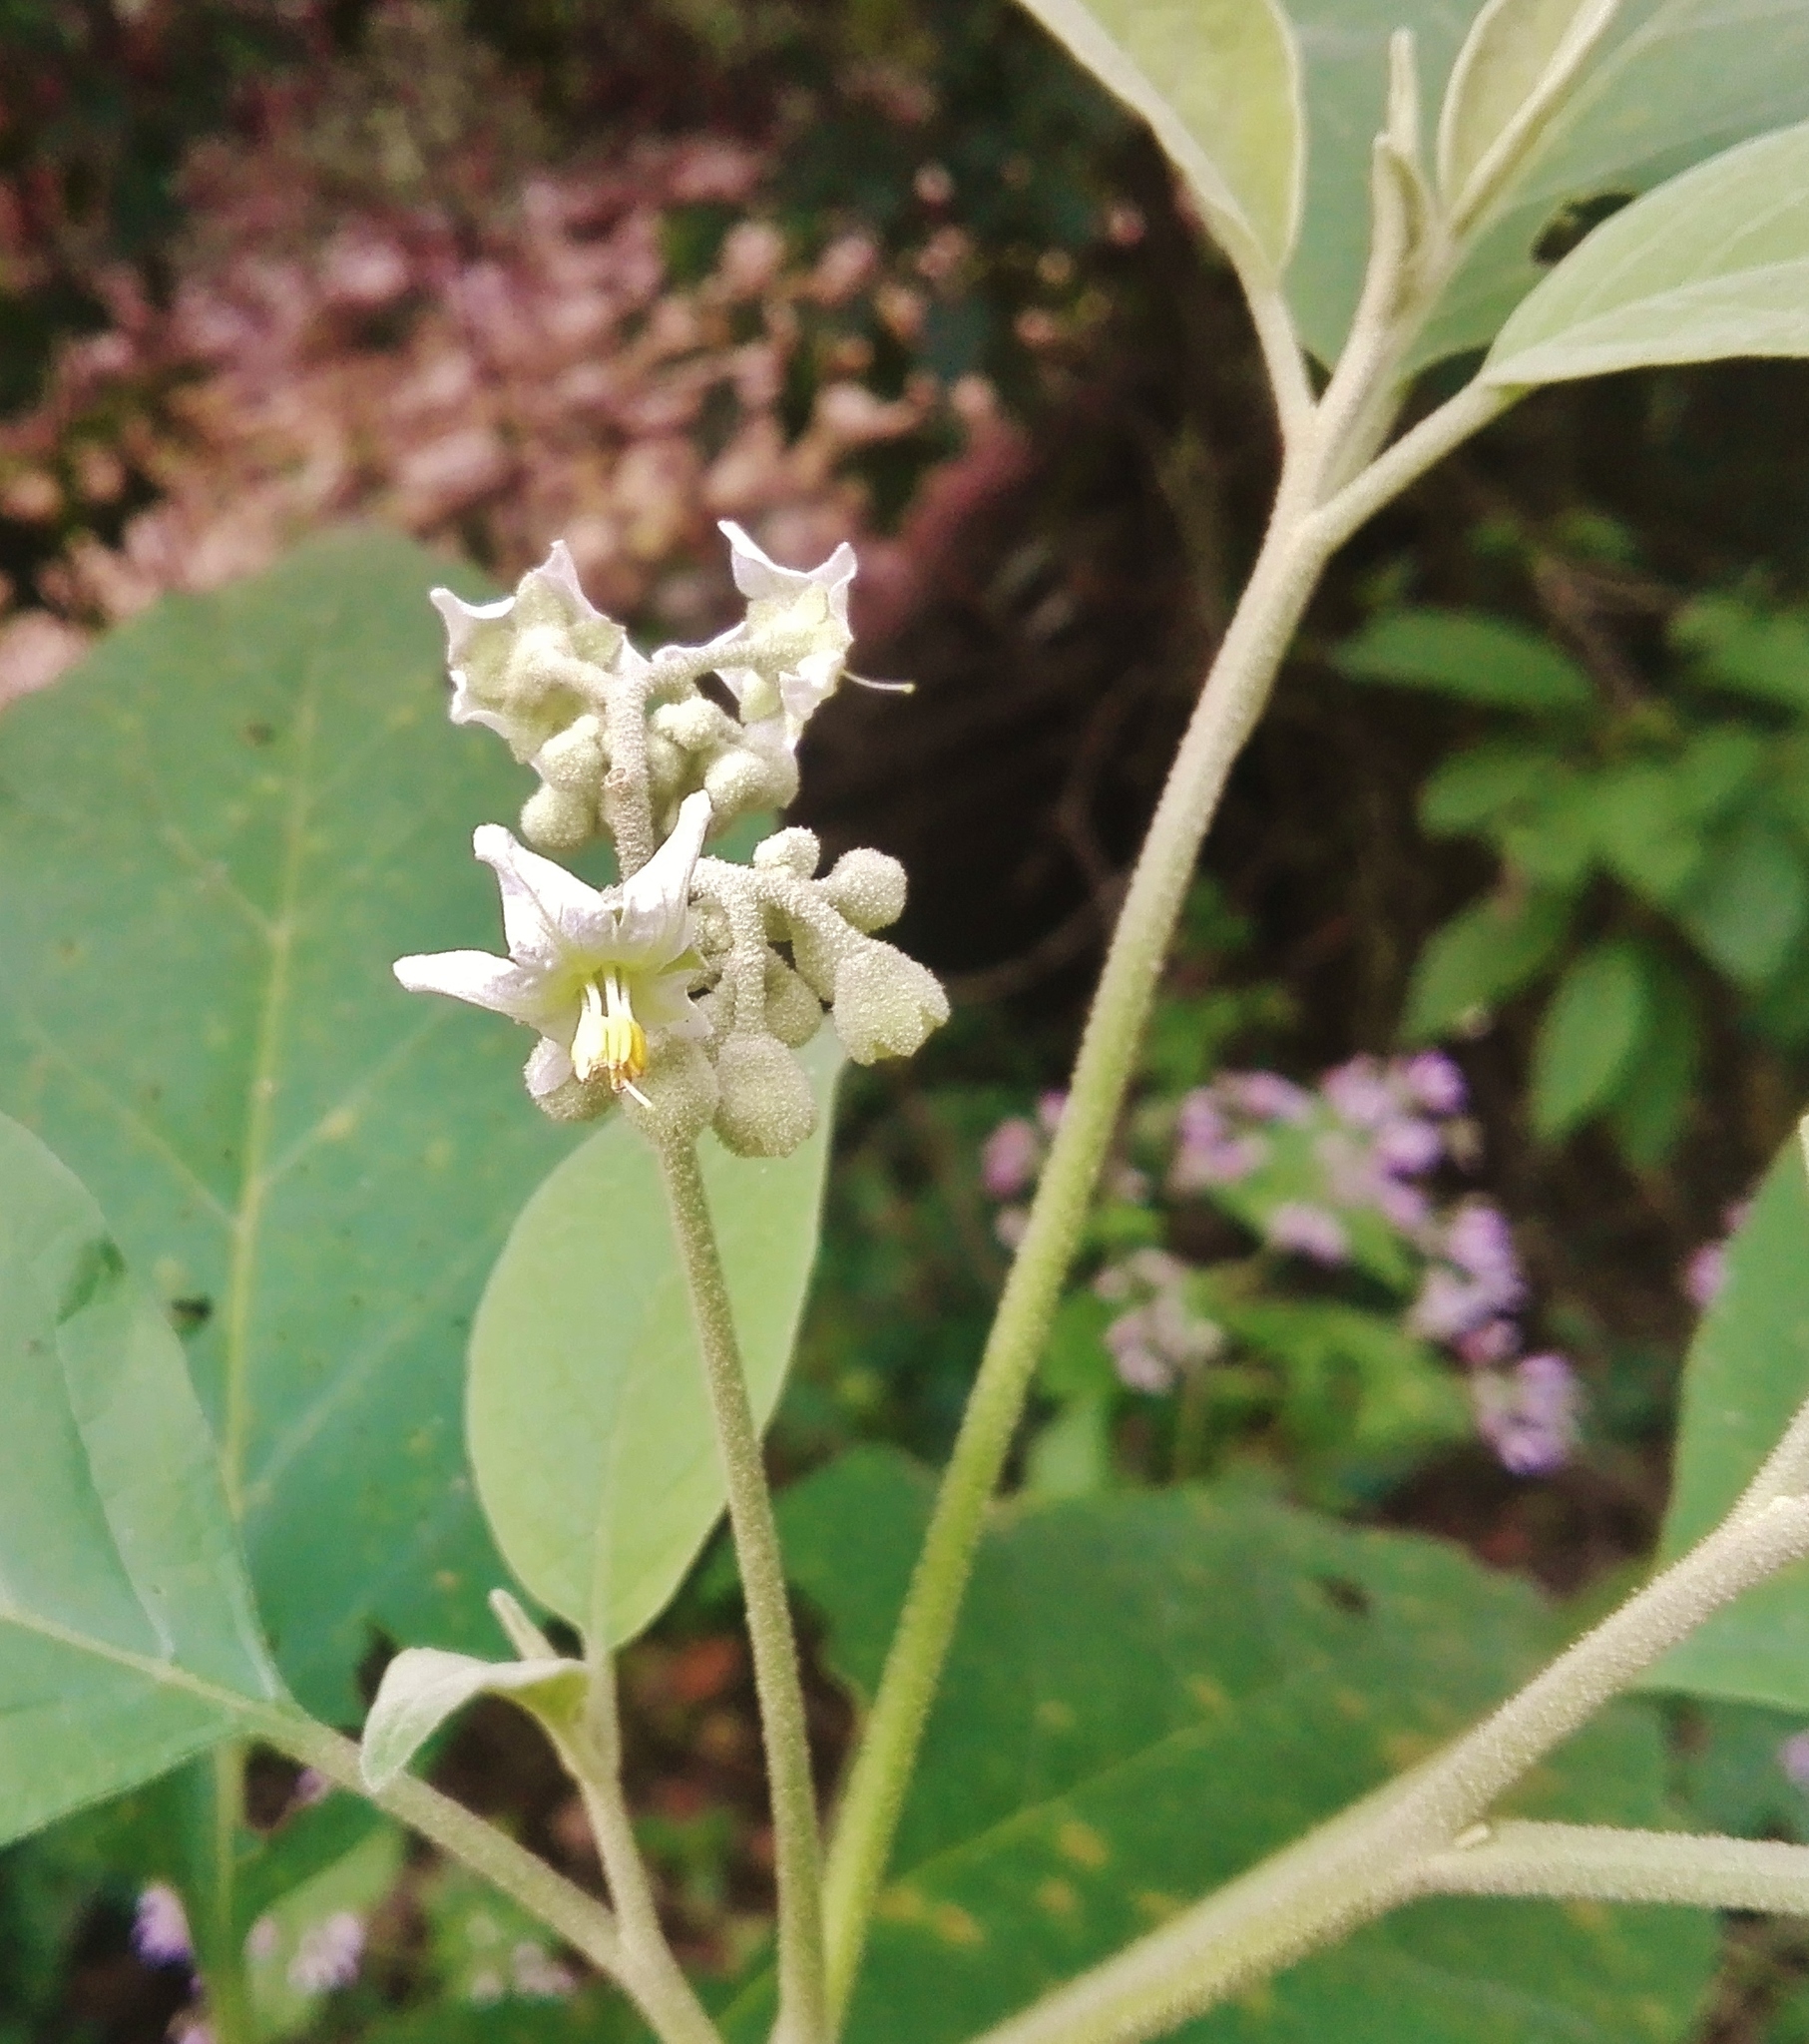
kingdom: Plantae
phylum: Tracheophyta
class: Magnoliopsida
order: Solanales
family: Solanaceae
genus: Solanum
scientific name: Solanum erianthum
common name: Tobacco-tree
